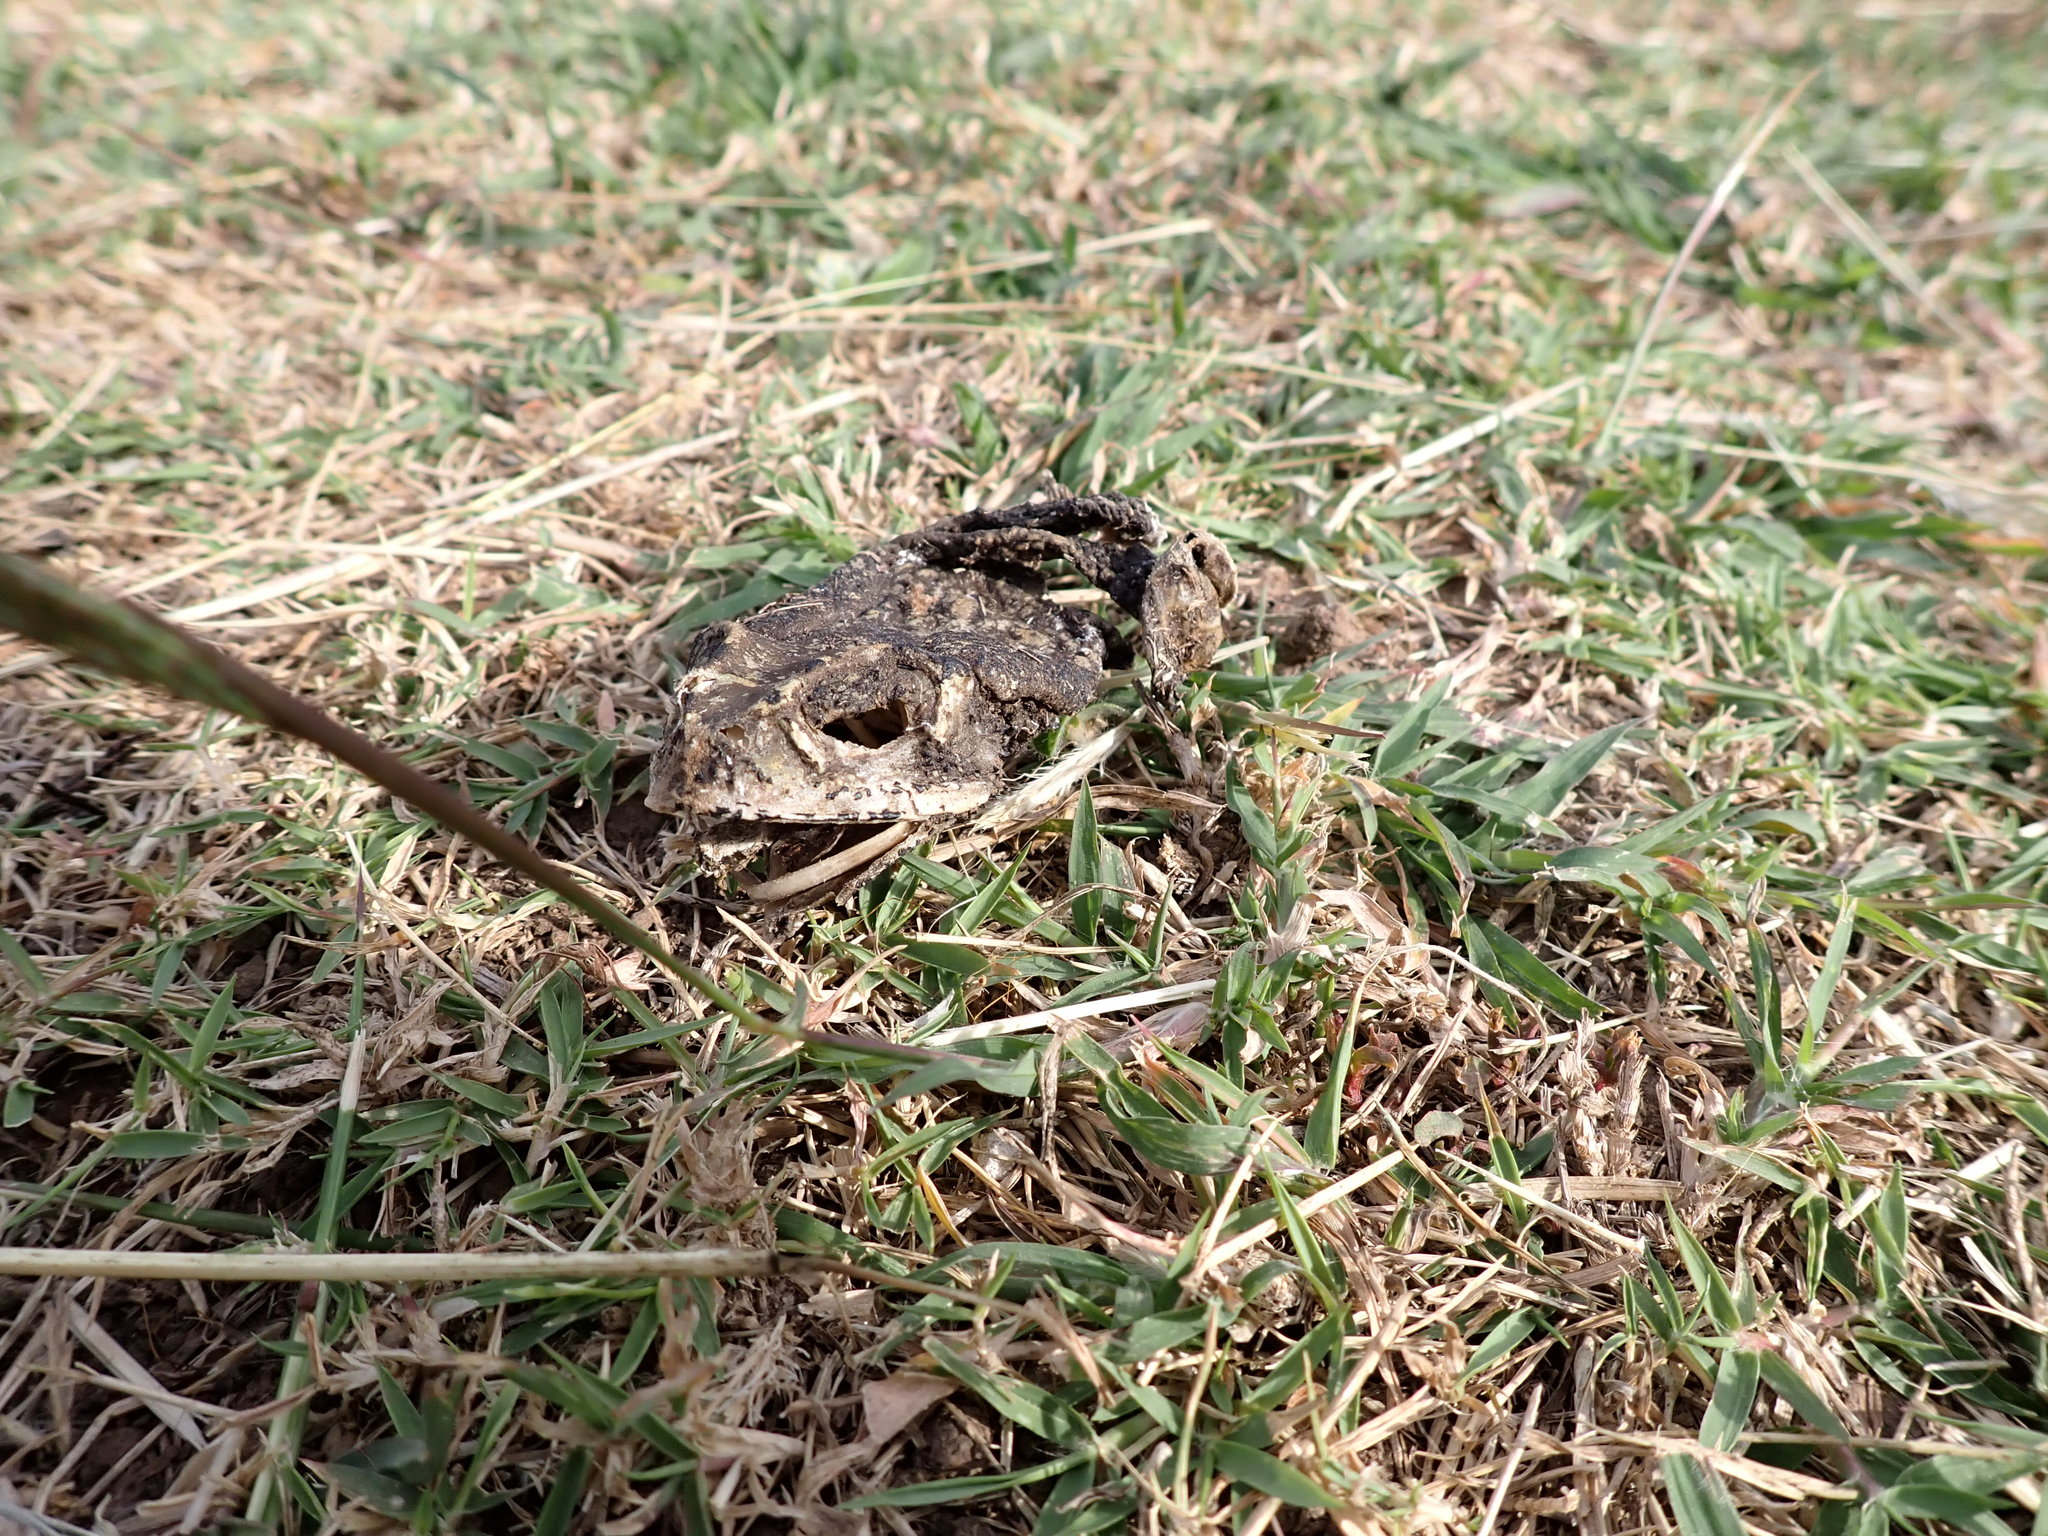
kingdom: Animalia
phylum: Chordata
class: Amphibia
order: Anura
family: Bufonidae
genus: Duttaphrynus
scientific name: Duttaphrynus melanostictus
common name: Common sunda toad
